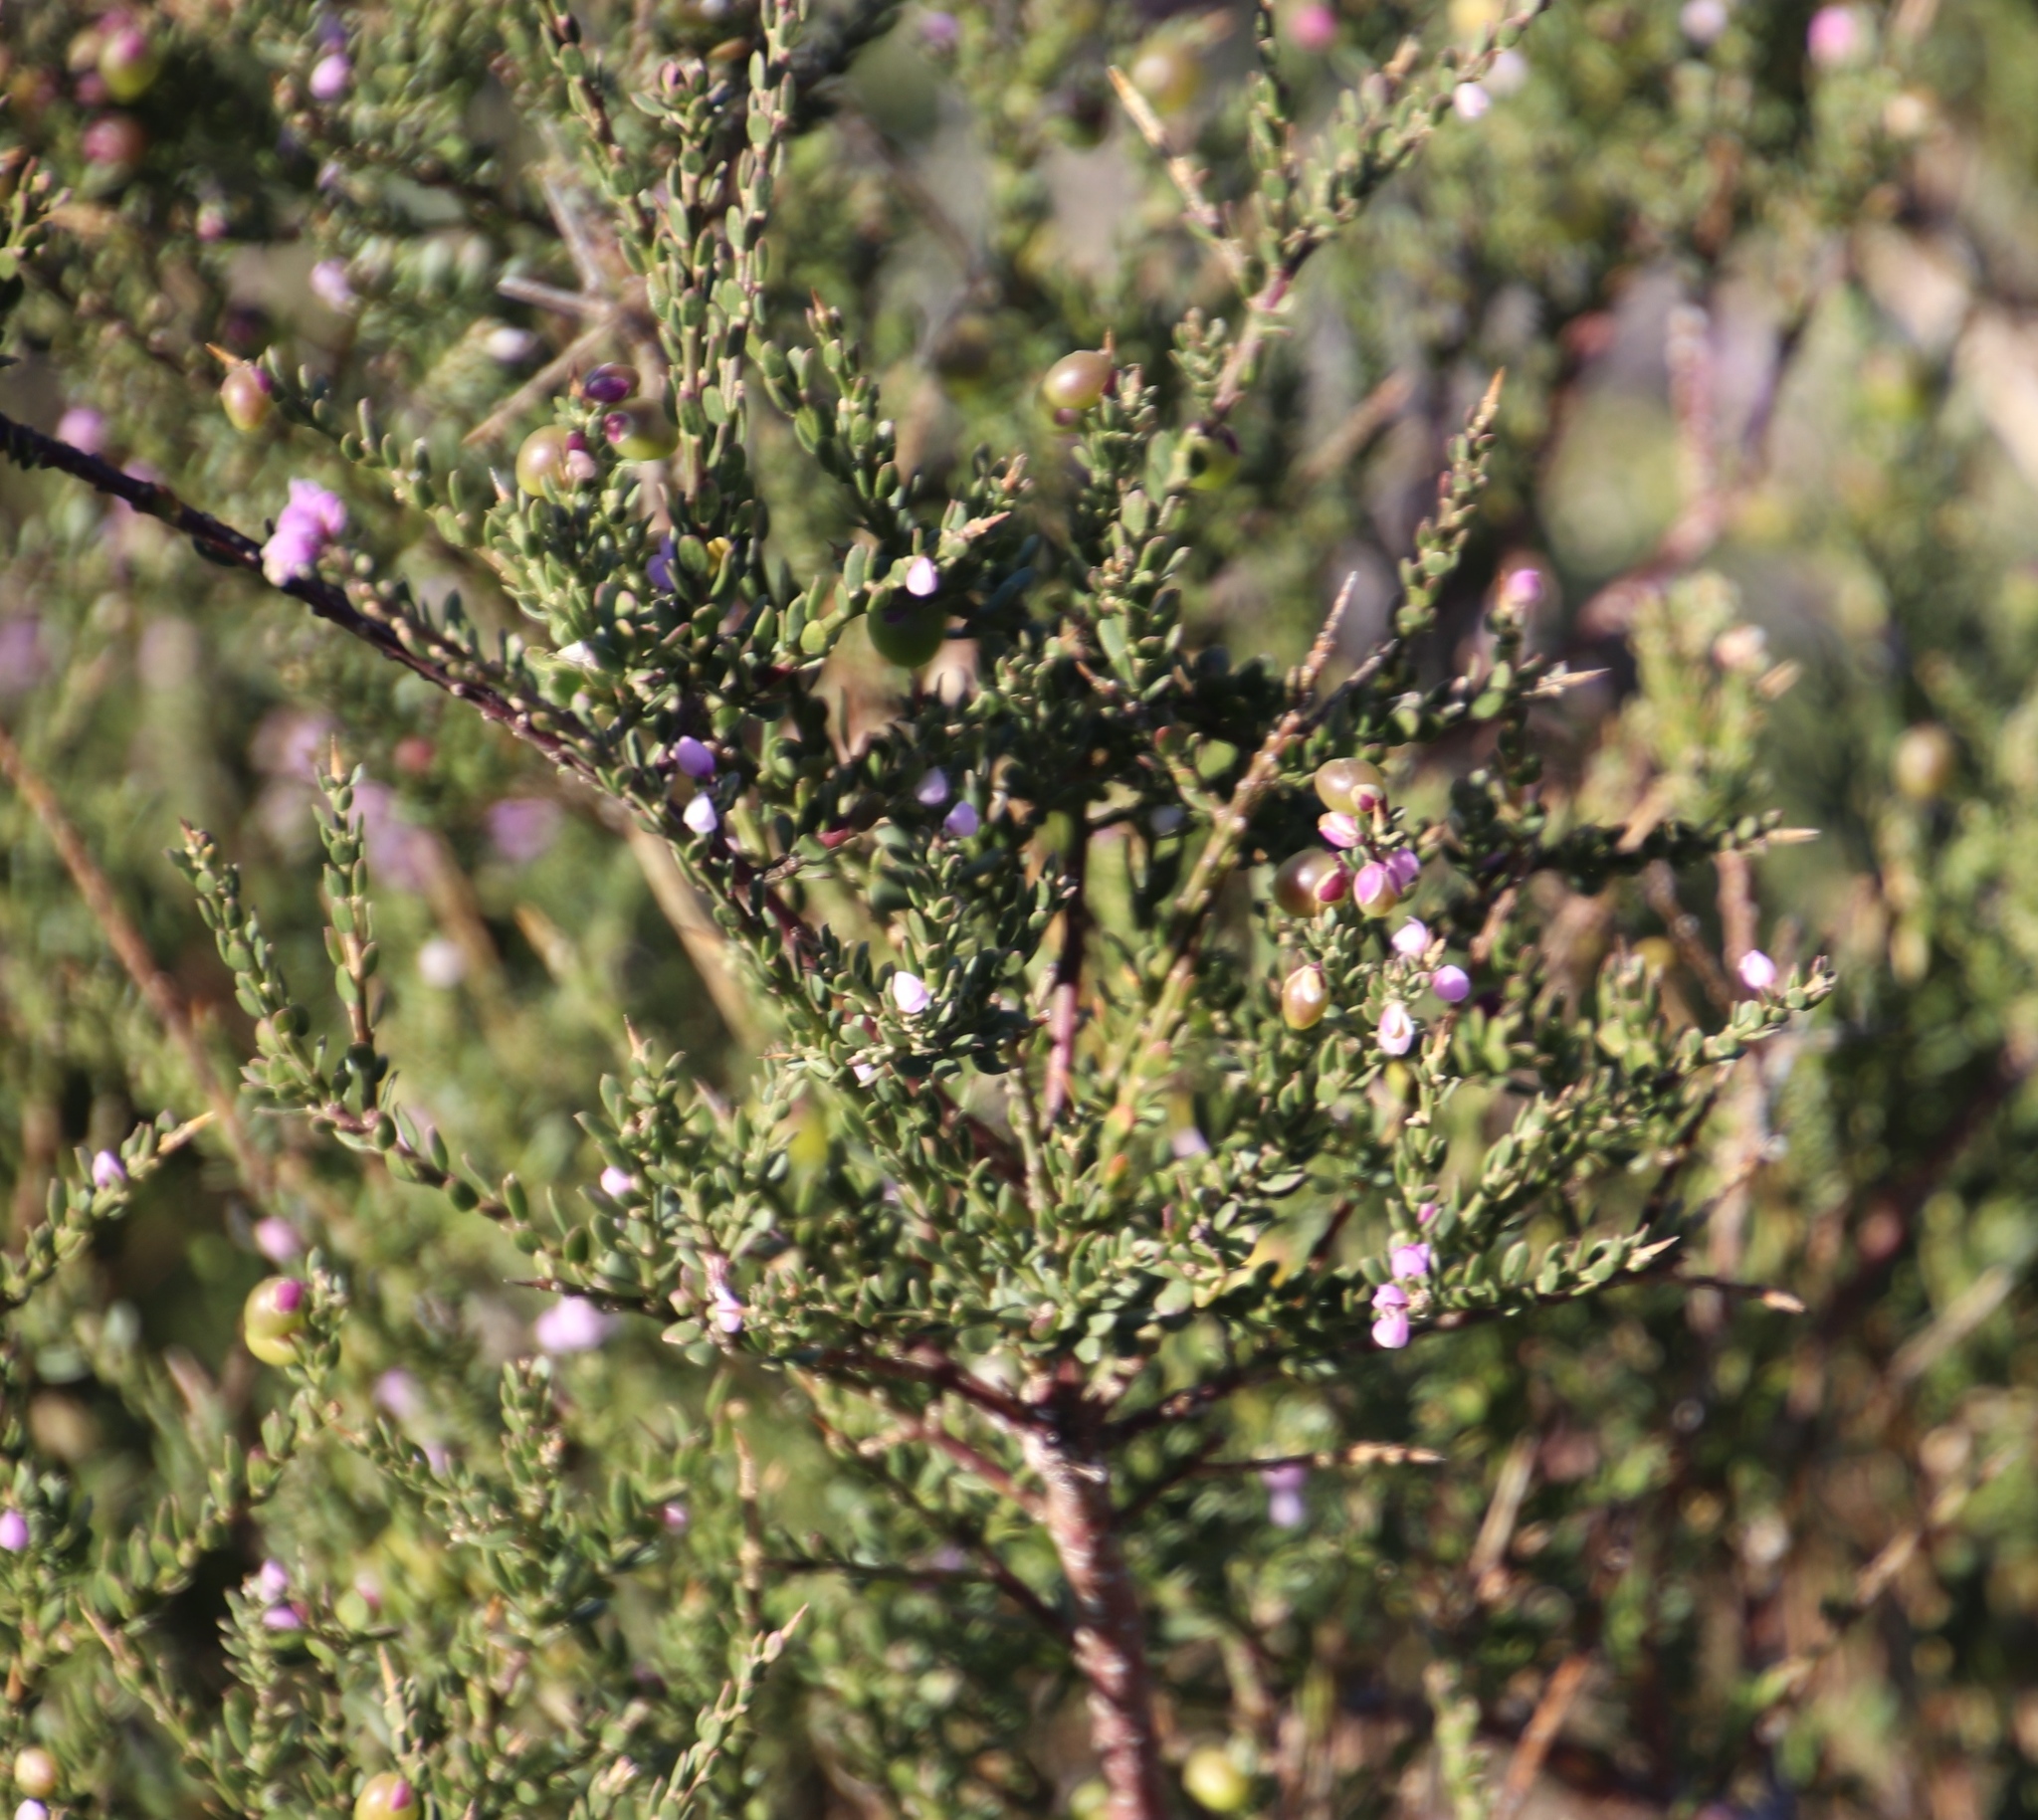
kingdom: Plantae
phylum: Tracheophyta
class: Magnoliopsida
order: Fabales
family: Polygalaceae
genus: Muraltia
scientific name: Muraltia spinosa
